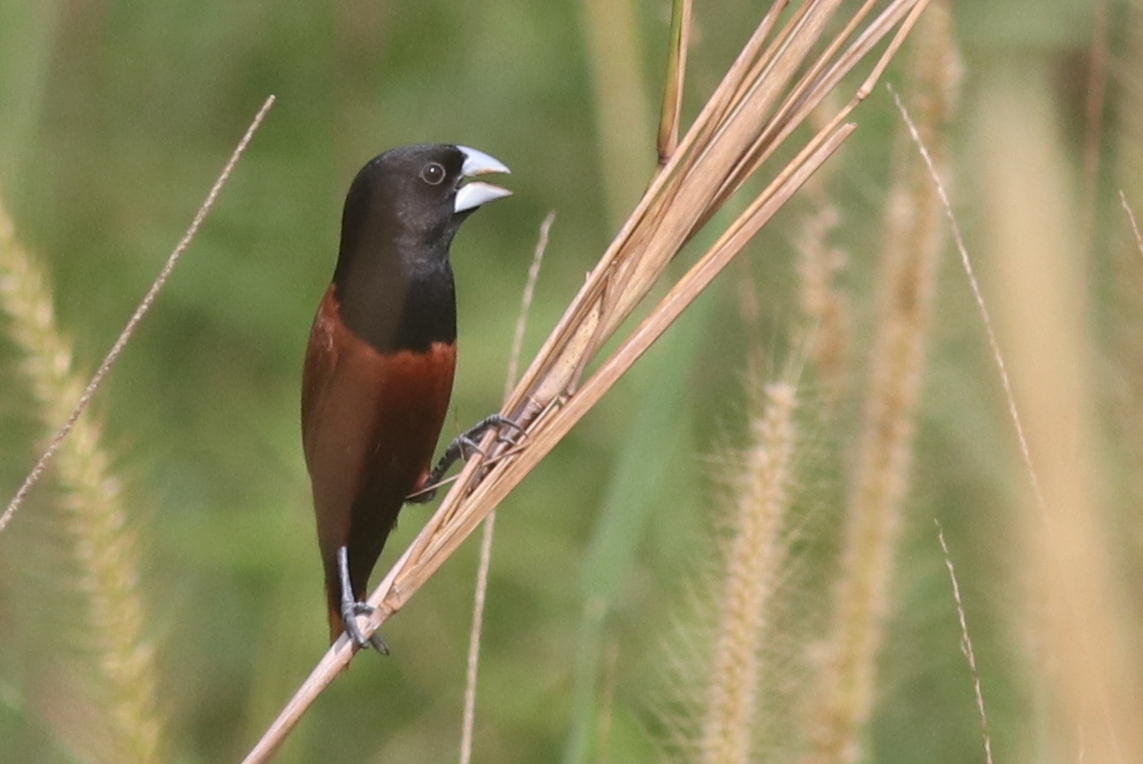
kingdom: Animalia
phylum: Chordata
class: Aves
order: Passeriformes
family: Estrildidae
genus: Lonchura
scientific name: Lonchura atricapilla
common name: Chestnut munia
